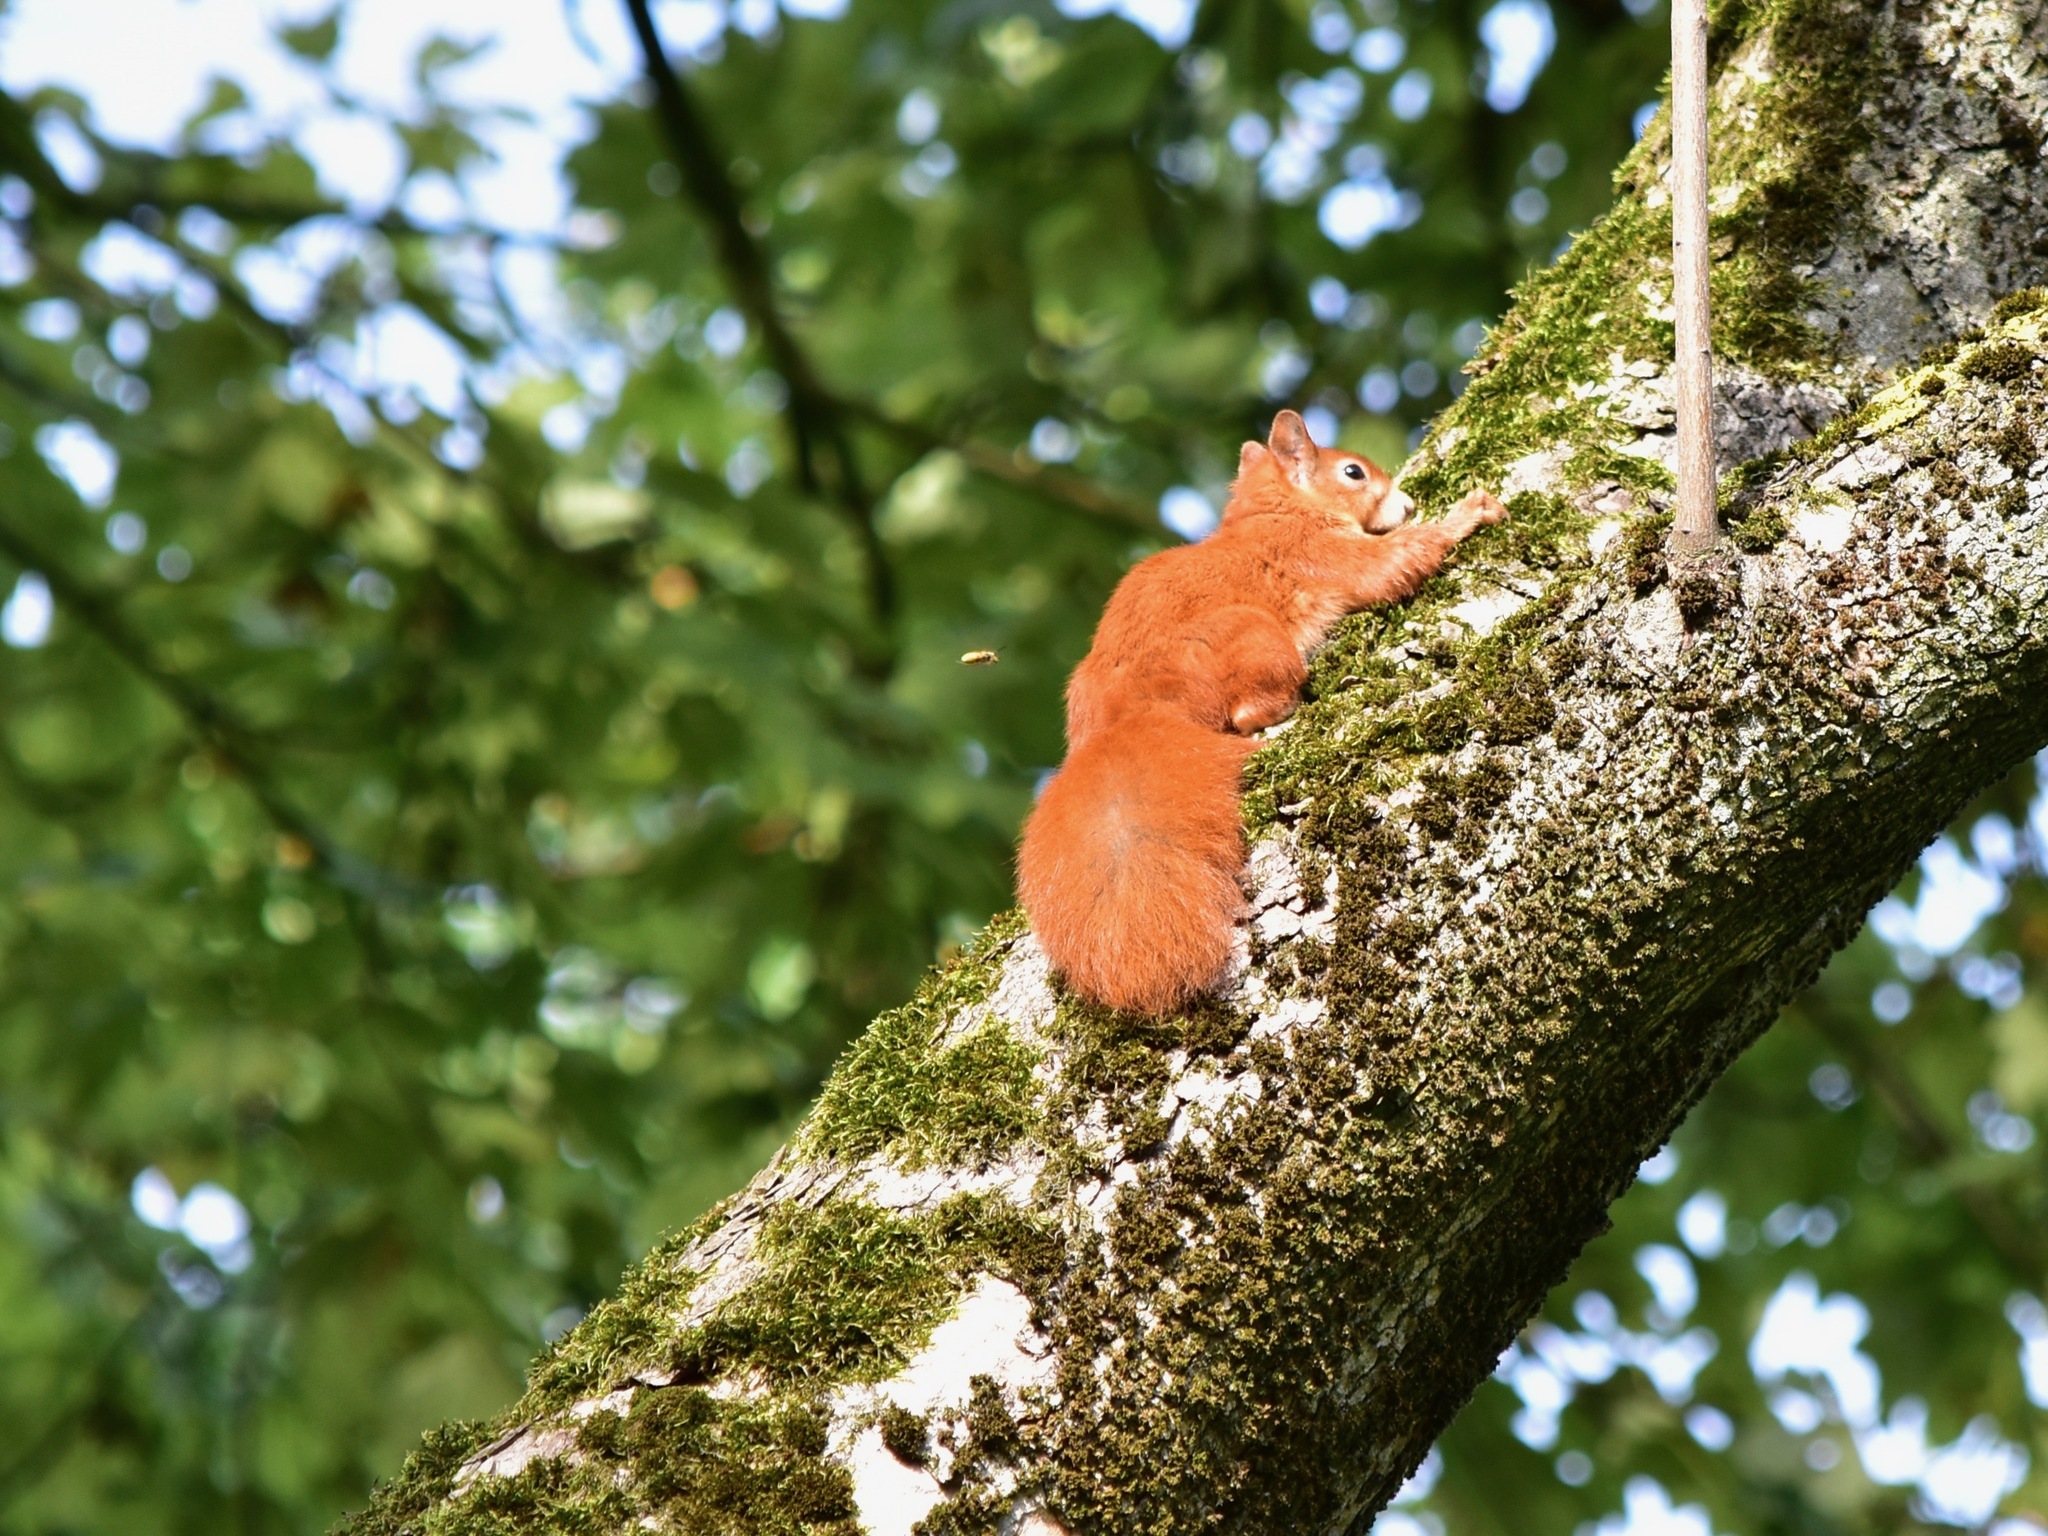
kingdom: Animalia
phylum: Chordata
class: Mammalia
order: Rodentia
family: Sciuridae
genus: Sciurus
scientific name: Sciurus vulgaris
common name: Eurasian red squirrel
